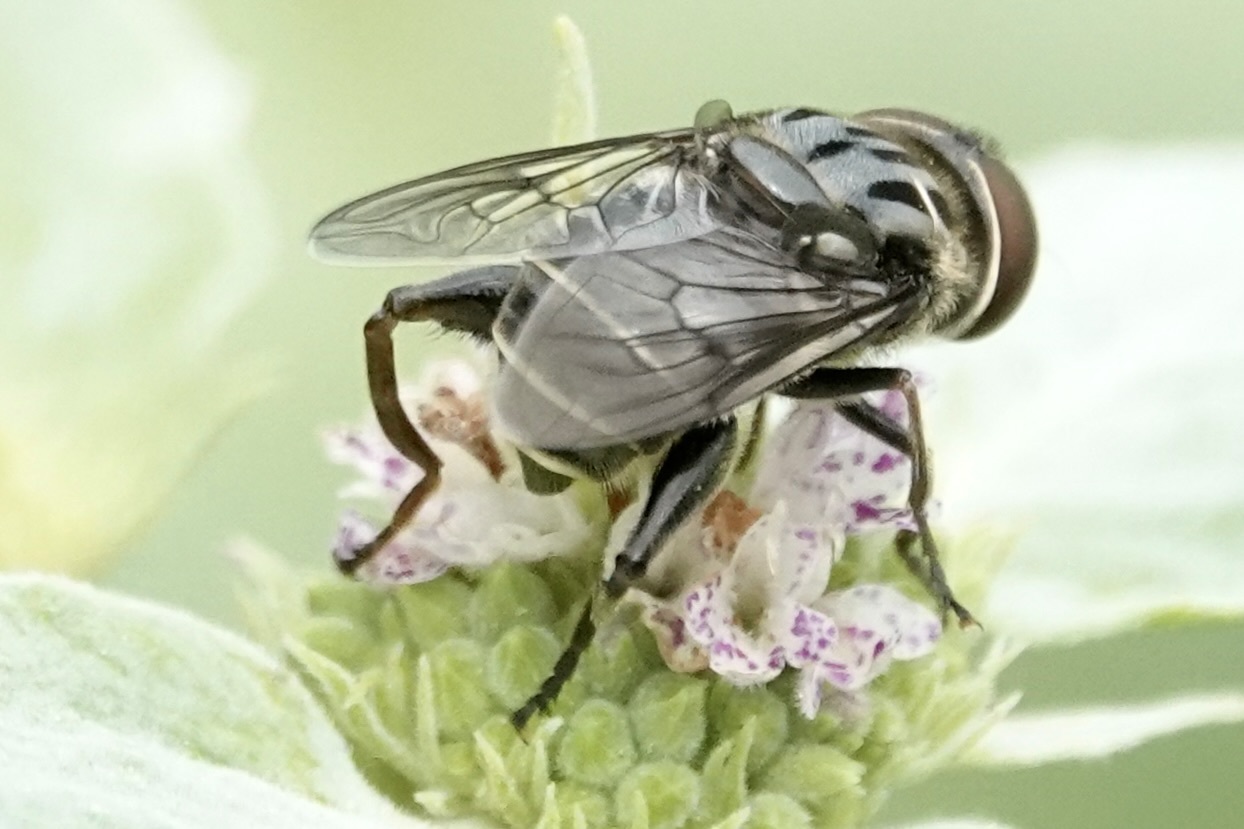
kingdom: Animalia
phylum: Arthropoda
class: Insecta
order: Diptera
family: Syrphidae
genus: Palpada
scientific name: Palpada furcata
